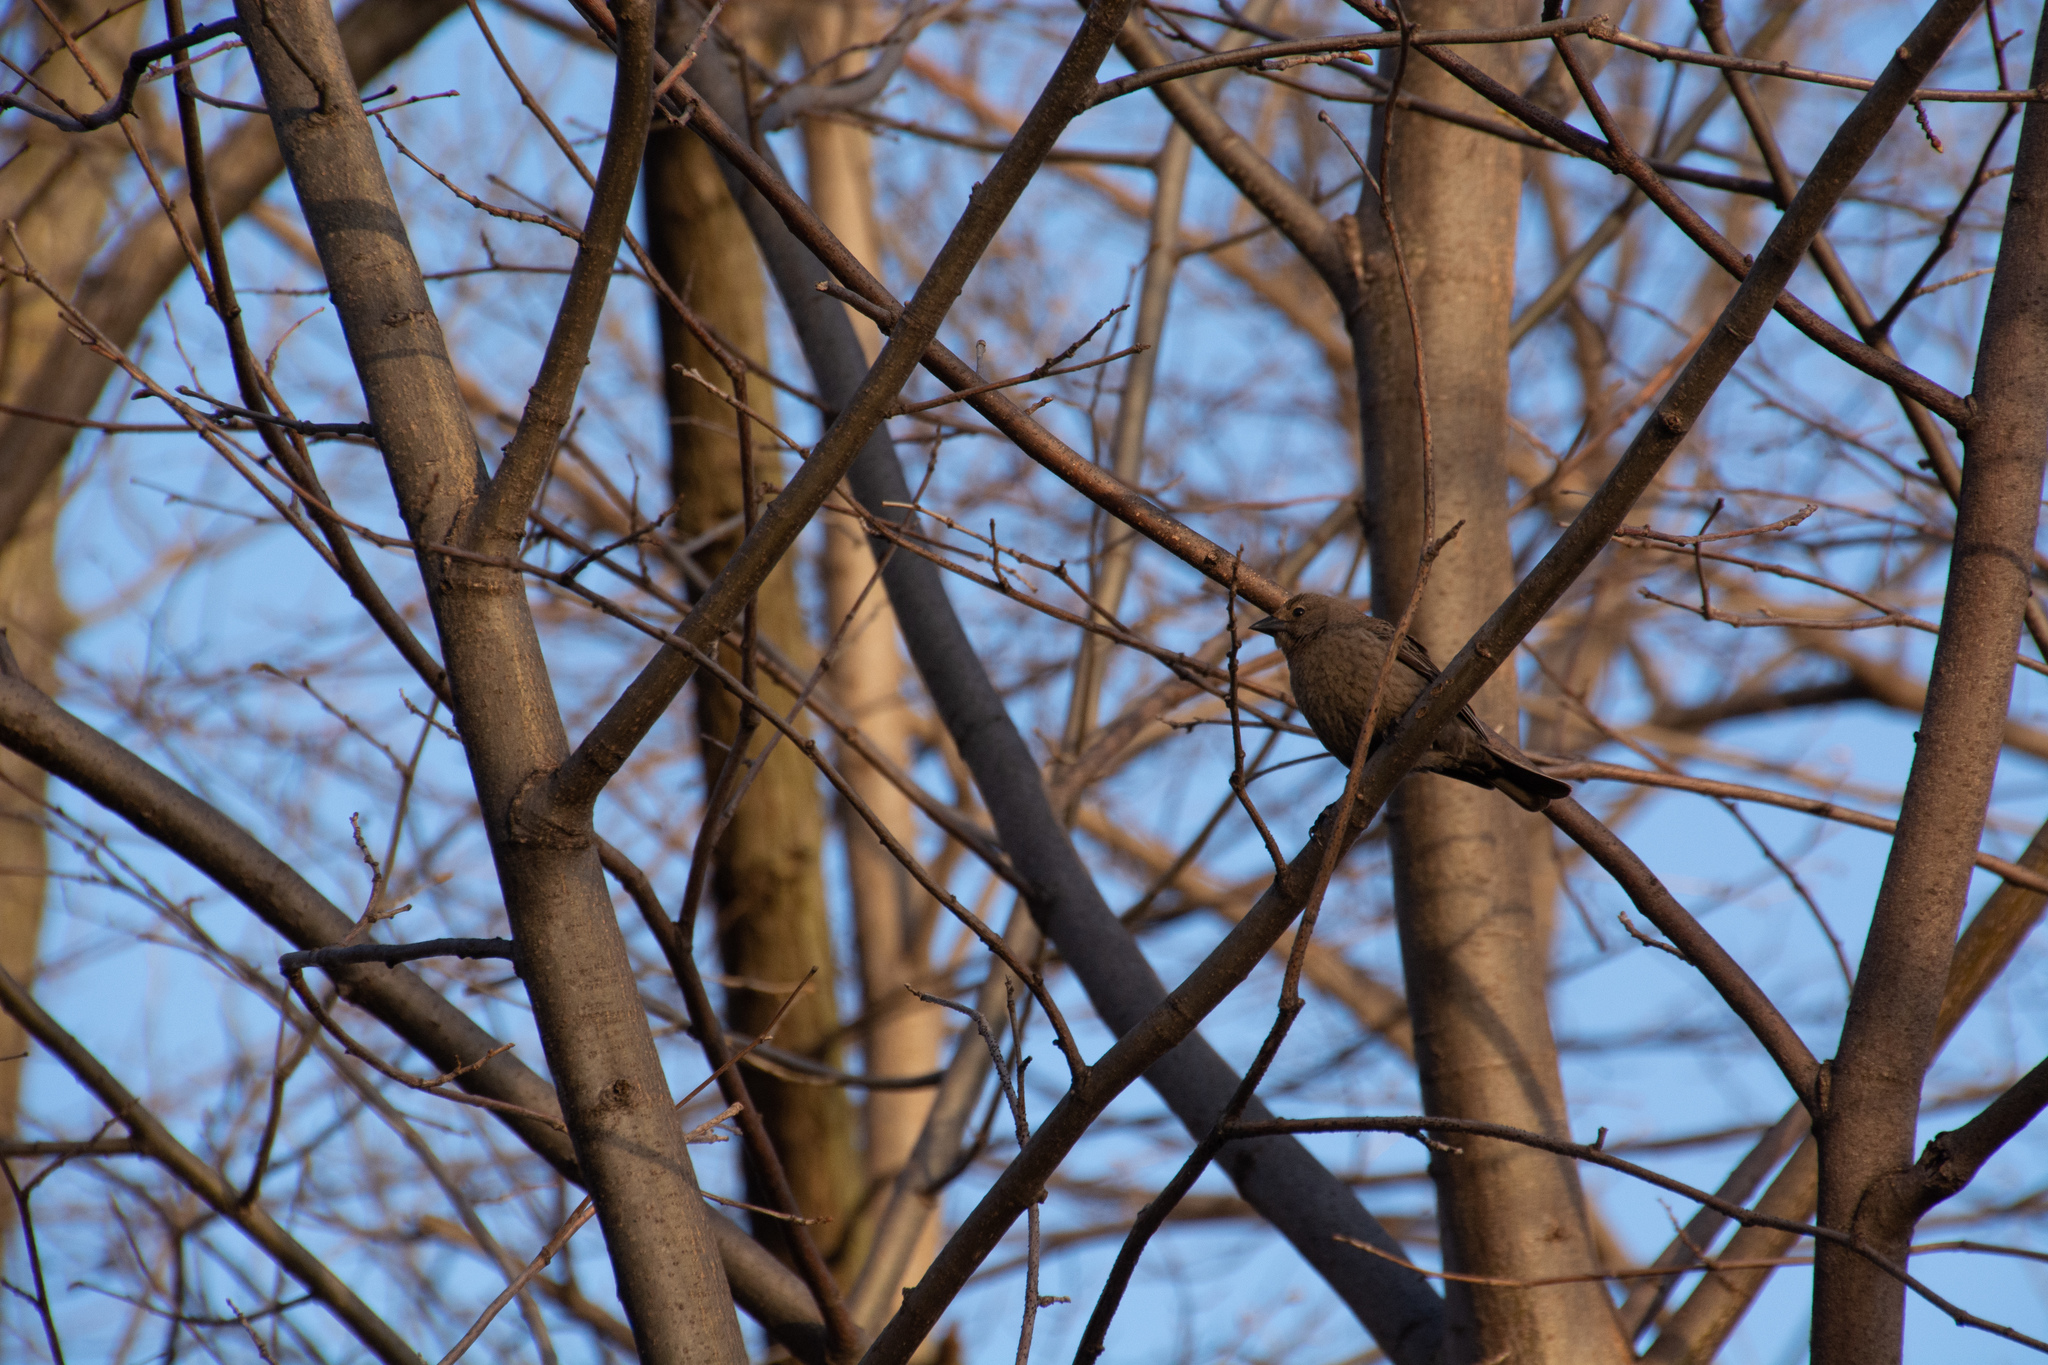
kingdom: Animalia
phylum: Chordata
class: Aves
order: Passeriformes
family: Icteridae
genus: Molothrus
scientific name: Molothrus ater
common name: Brown-headed cowbird
